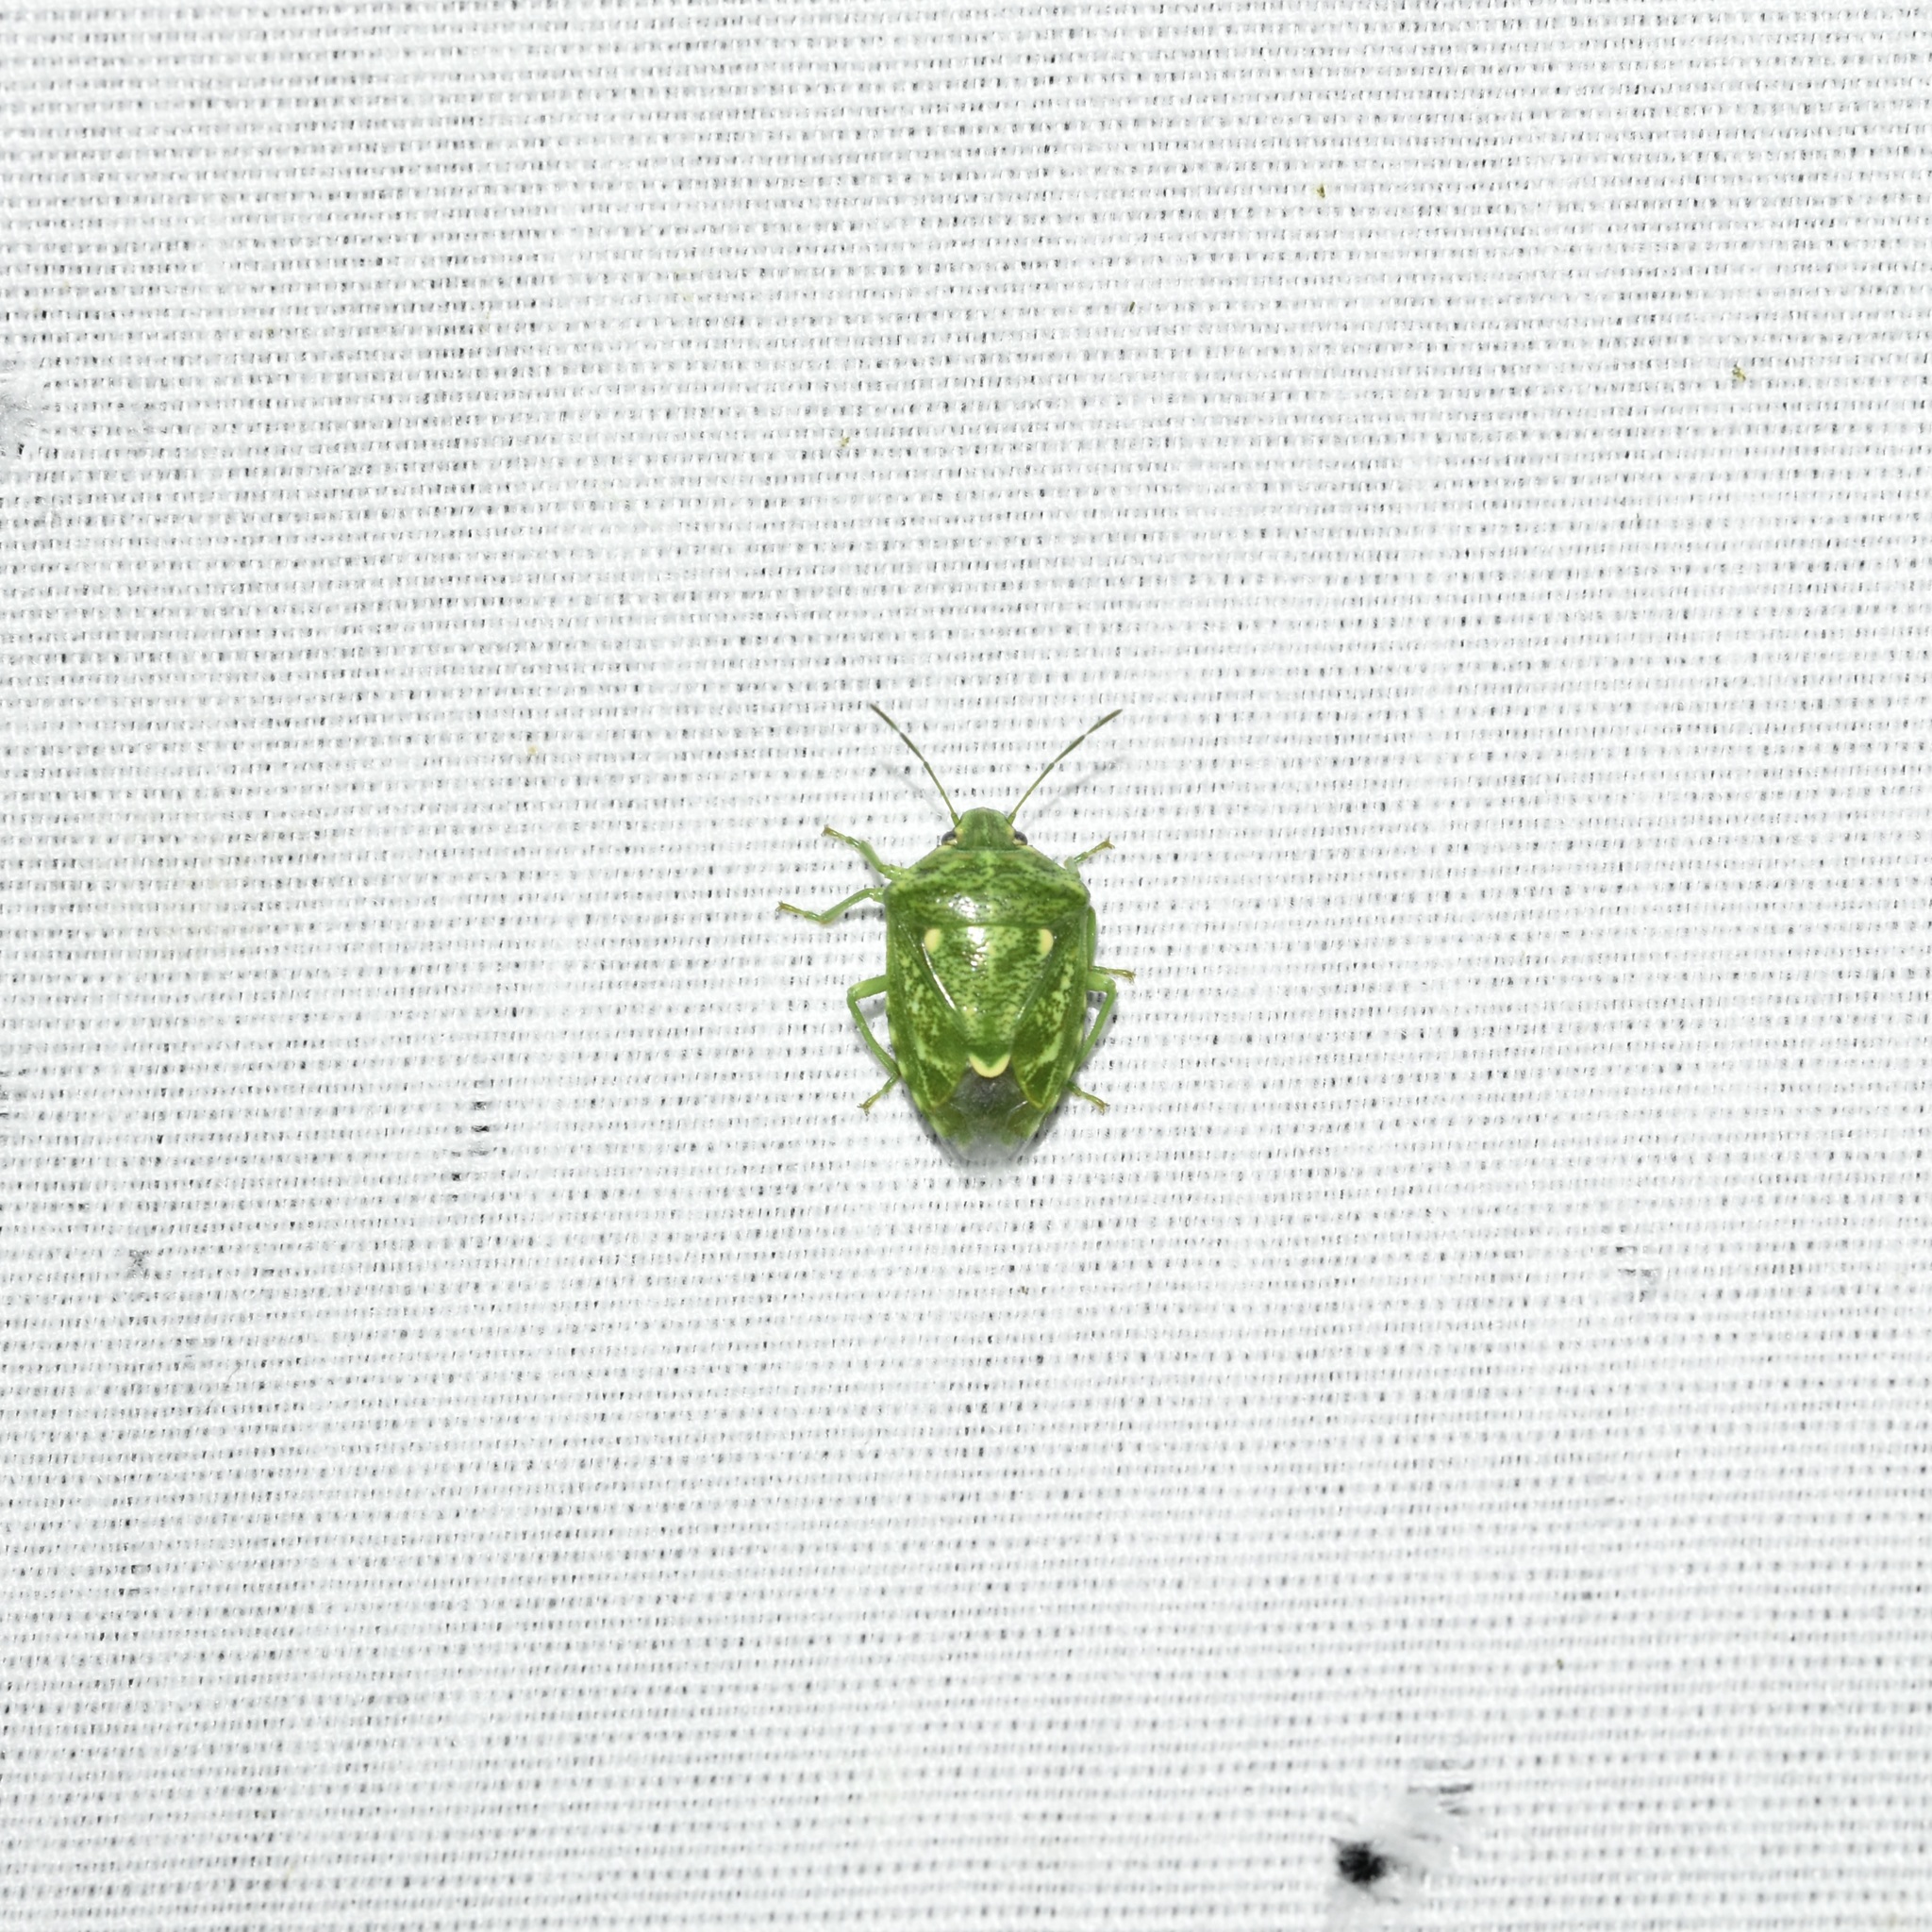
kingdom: Animalia
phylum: Arthropoda
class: Insecta
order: Hemiptera
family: Pentatomidae
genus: Banasa
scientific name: Banasa euchlora
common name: Cedar berry bug
